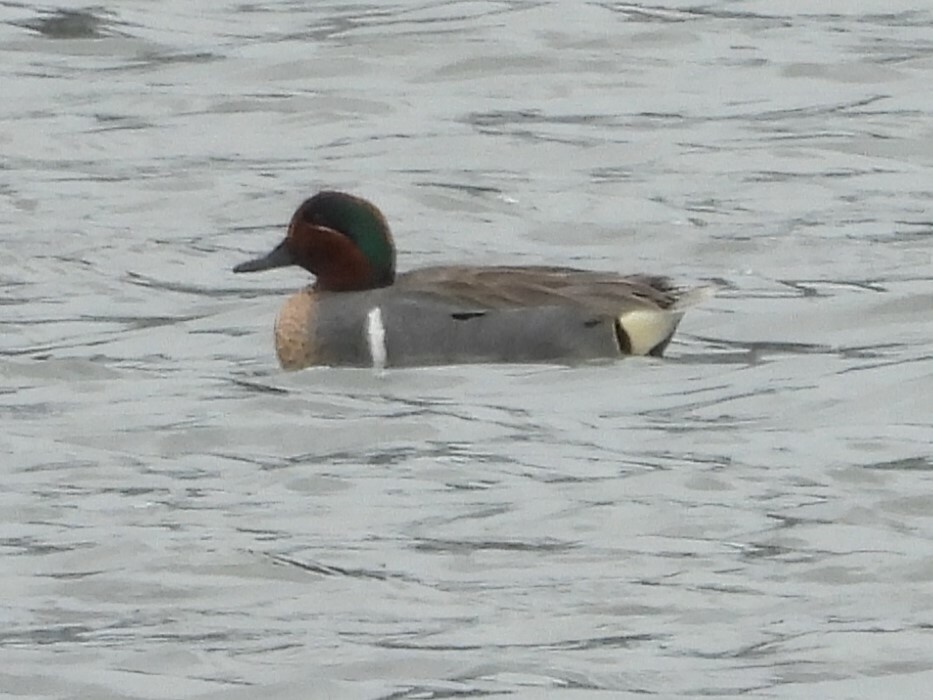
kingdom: Animalia
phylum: Chordata
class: Aves
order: Anseriformes
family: Anatidae
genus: Anas
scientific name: Anas crecca
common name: Eurasian teal
